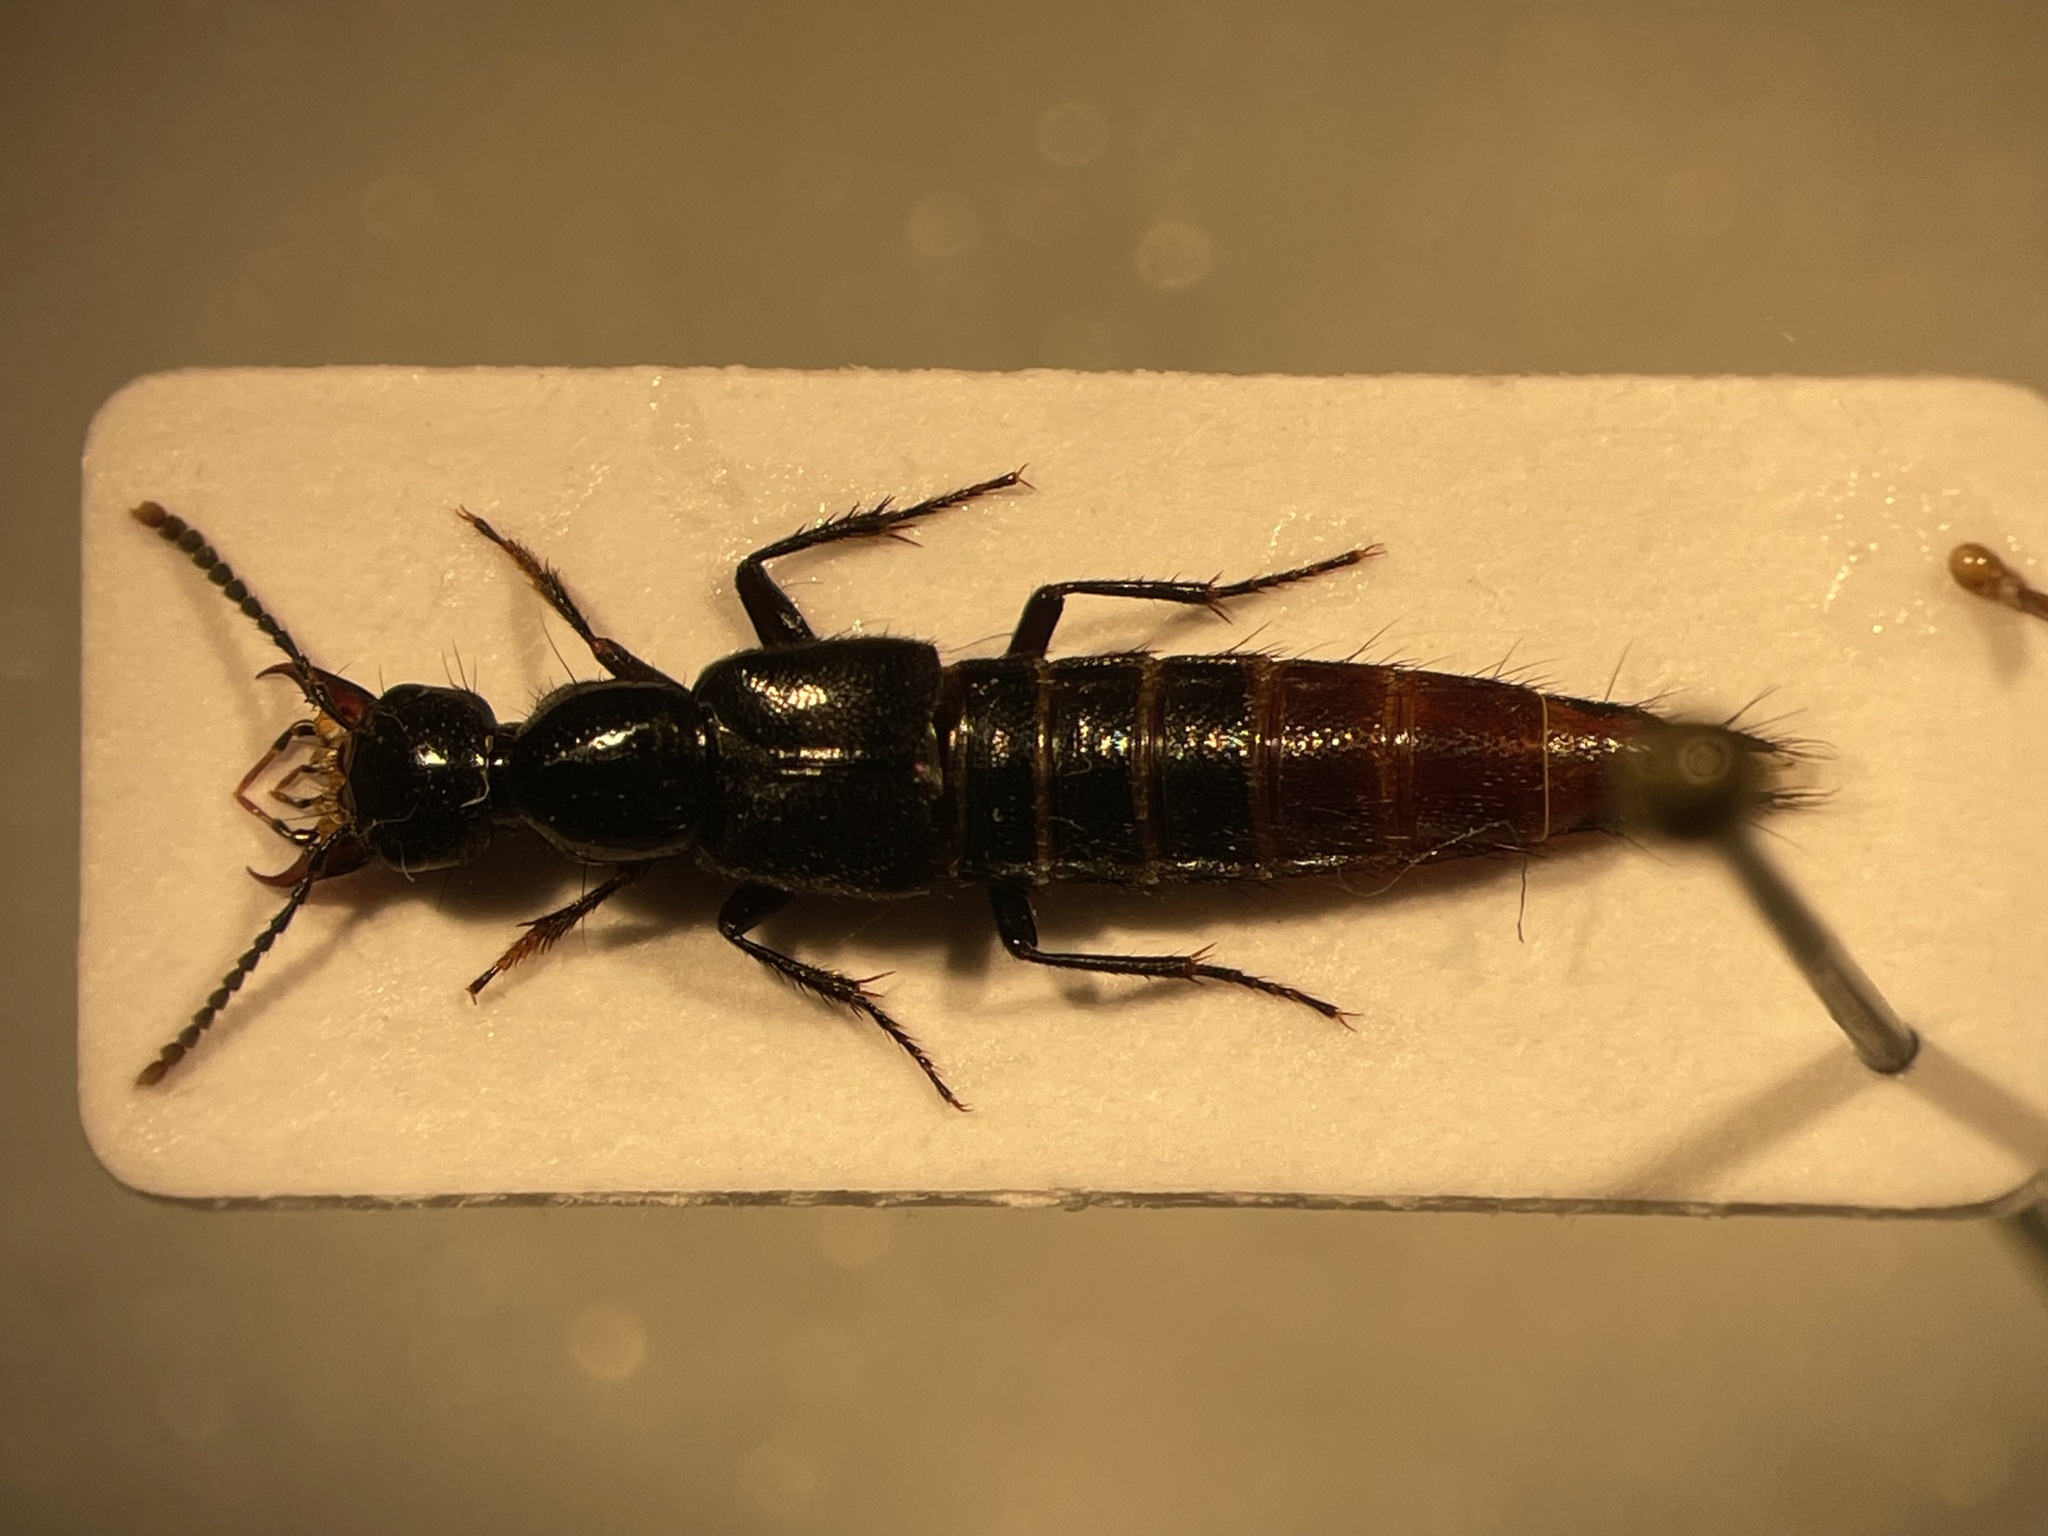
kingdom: Animalia
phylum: Arthropoda
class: Insecta
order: Coleoptera
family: Staphylinidae
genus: Hesperus
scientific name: Hesperus apicialis
